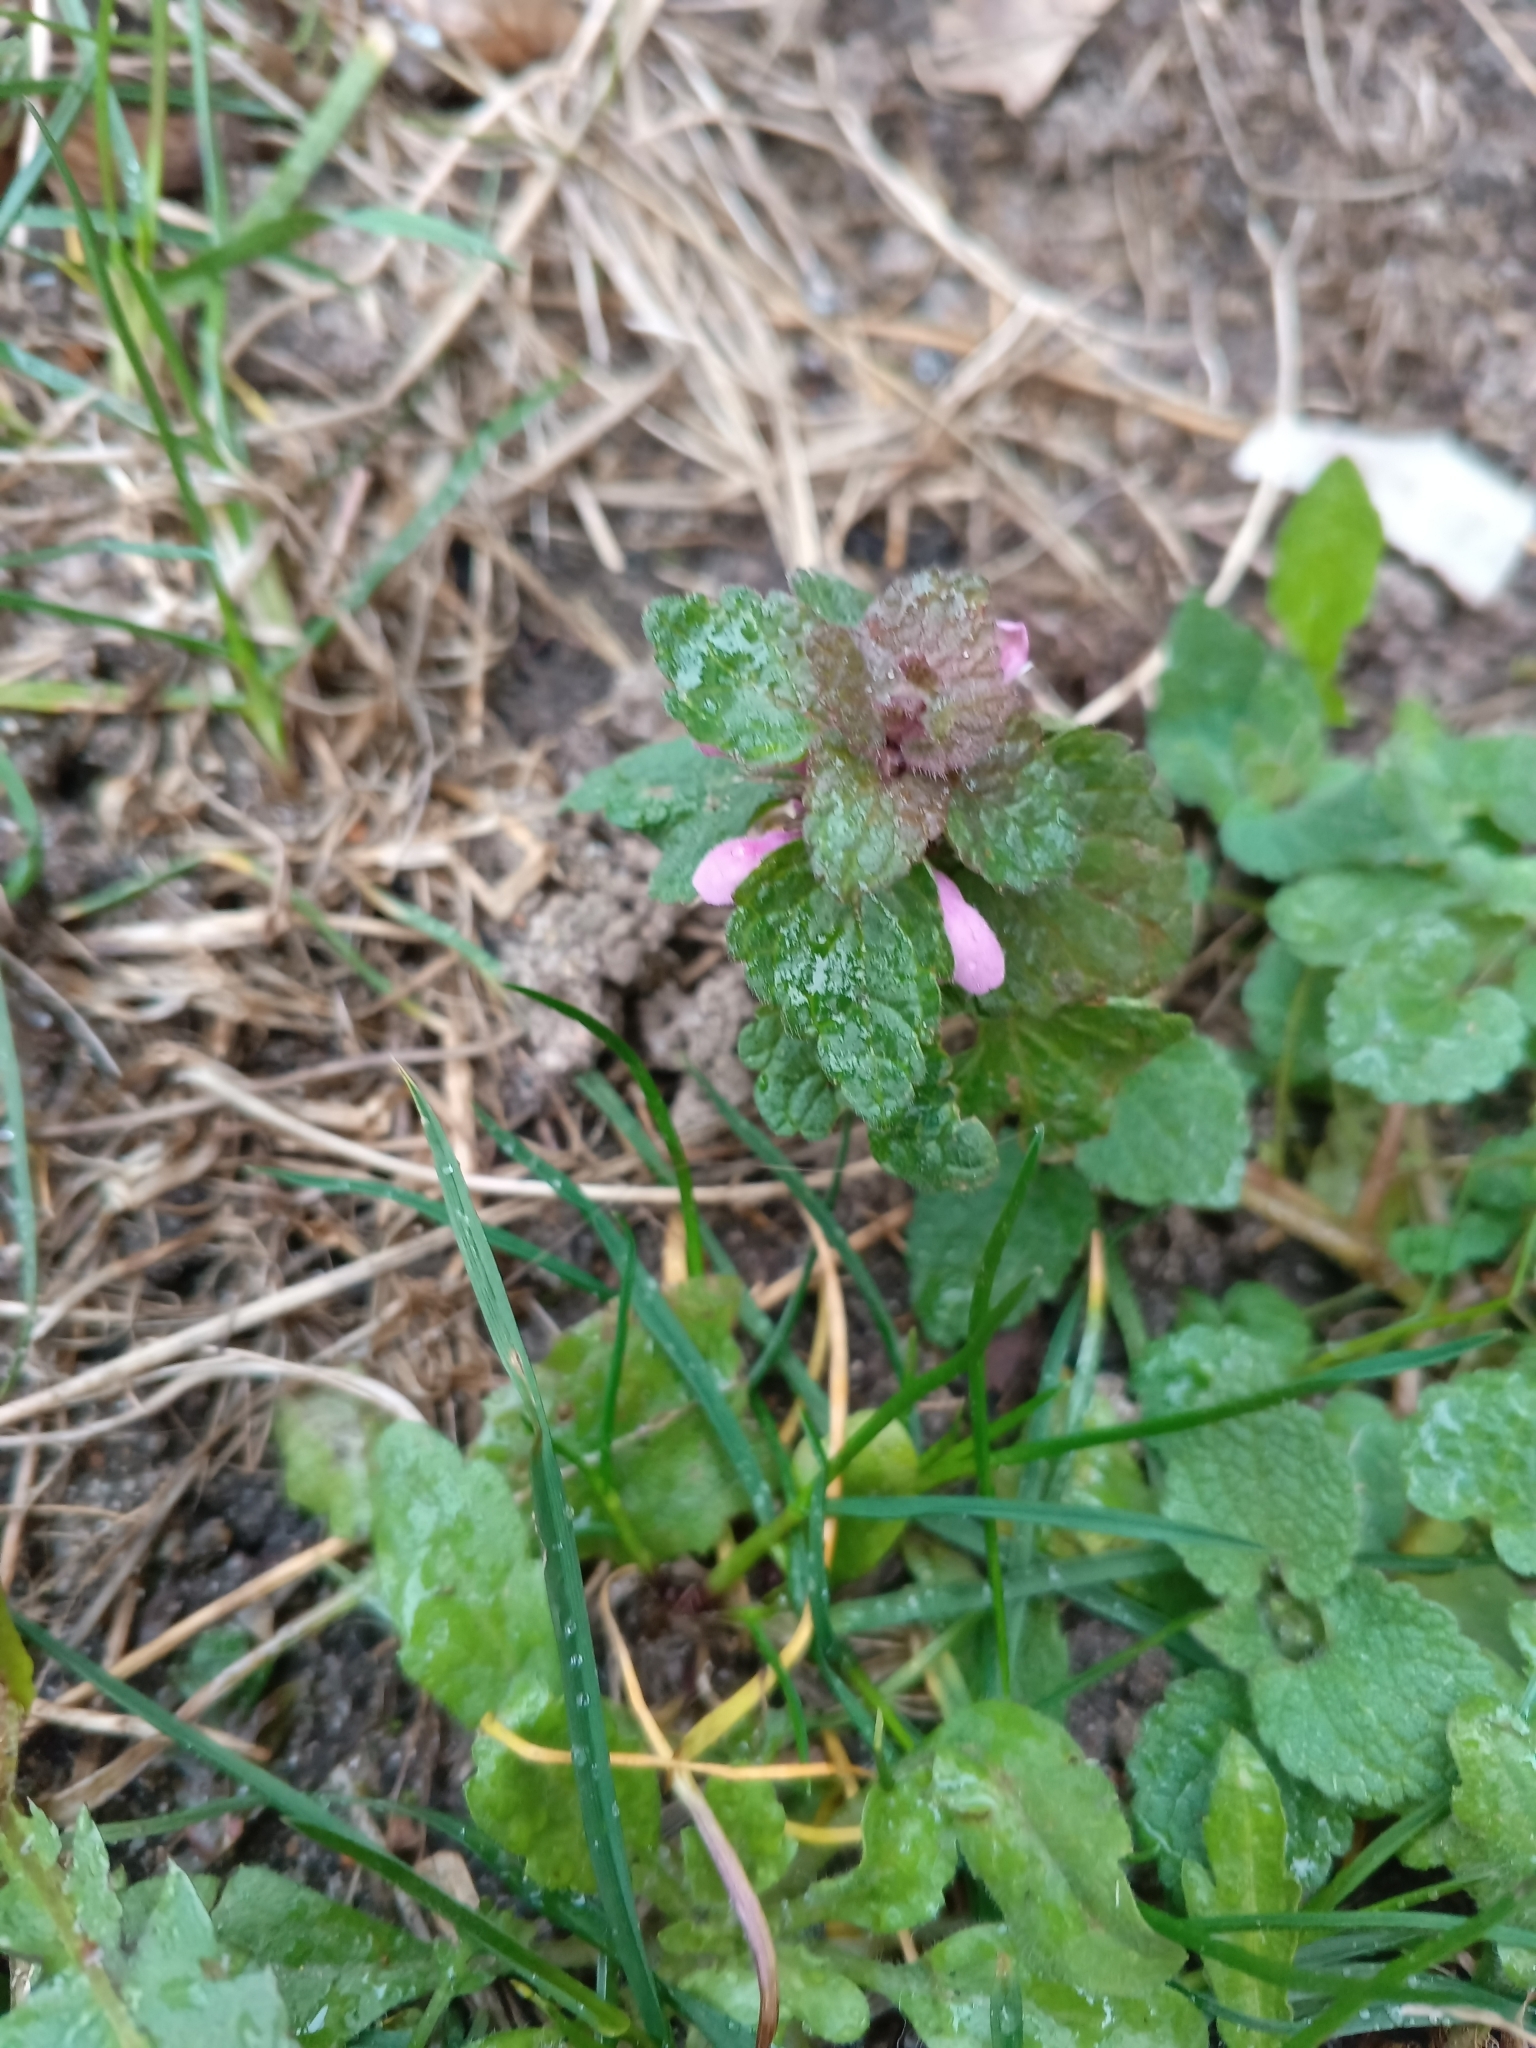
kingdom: Plantae
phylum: Tracheophyta
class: Magnoliopsida
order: Lamiales
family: Lamiaceae
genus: Lamium
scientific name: Lamium purpureum
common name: Red dead-nettle
